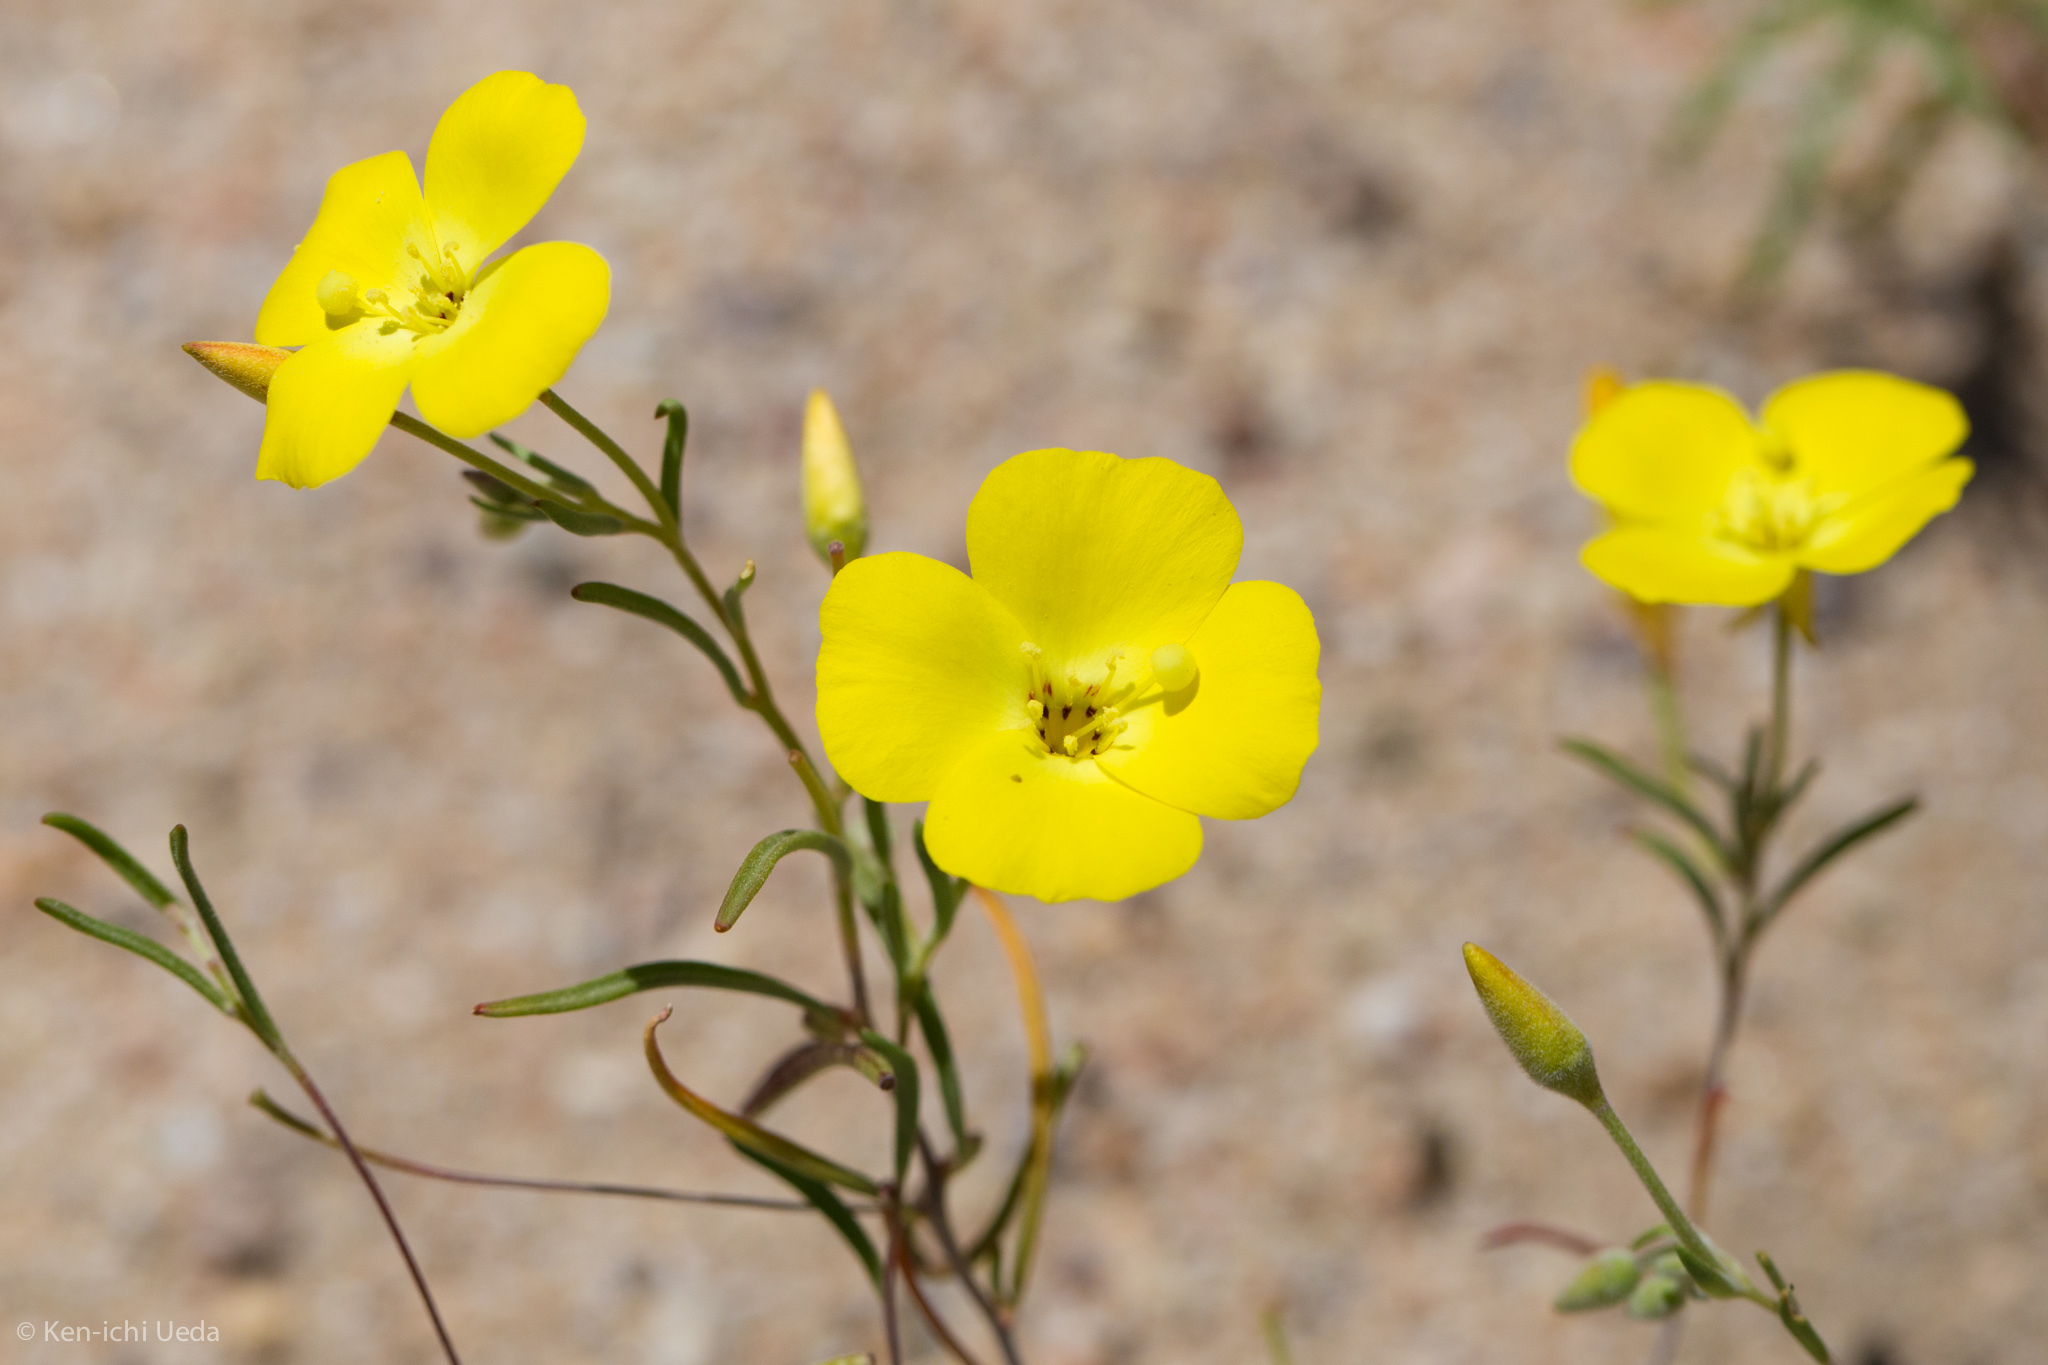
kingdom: Plantae
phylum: Tracheophyta
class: Magnoliopsida
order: Myrtales
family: Onagraceae
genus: Camissonia
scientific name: Camissonia campestris
